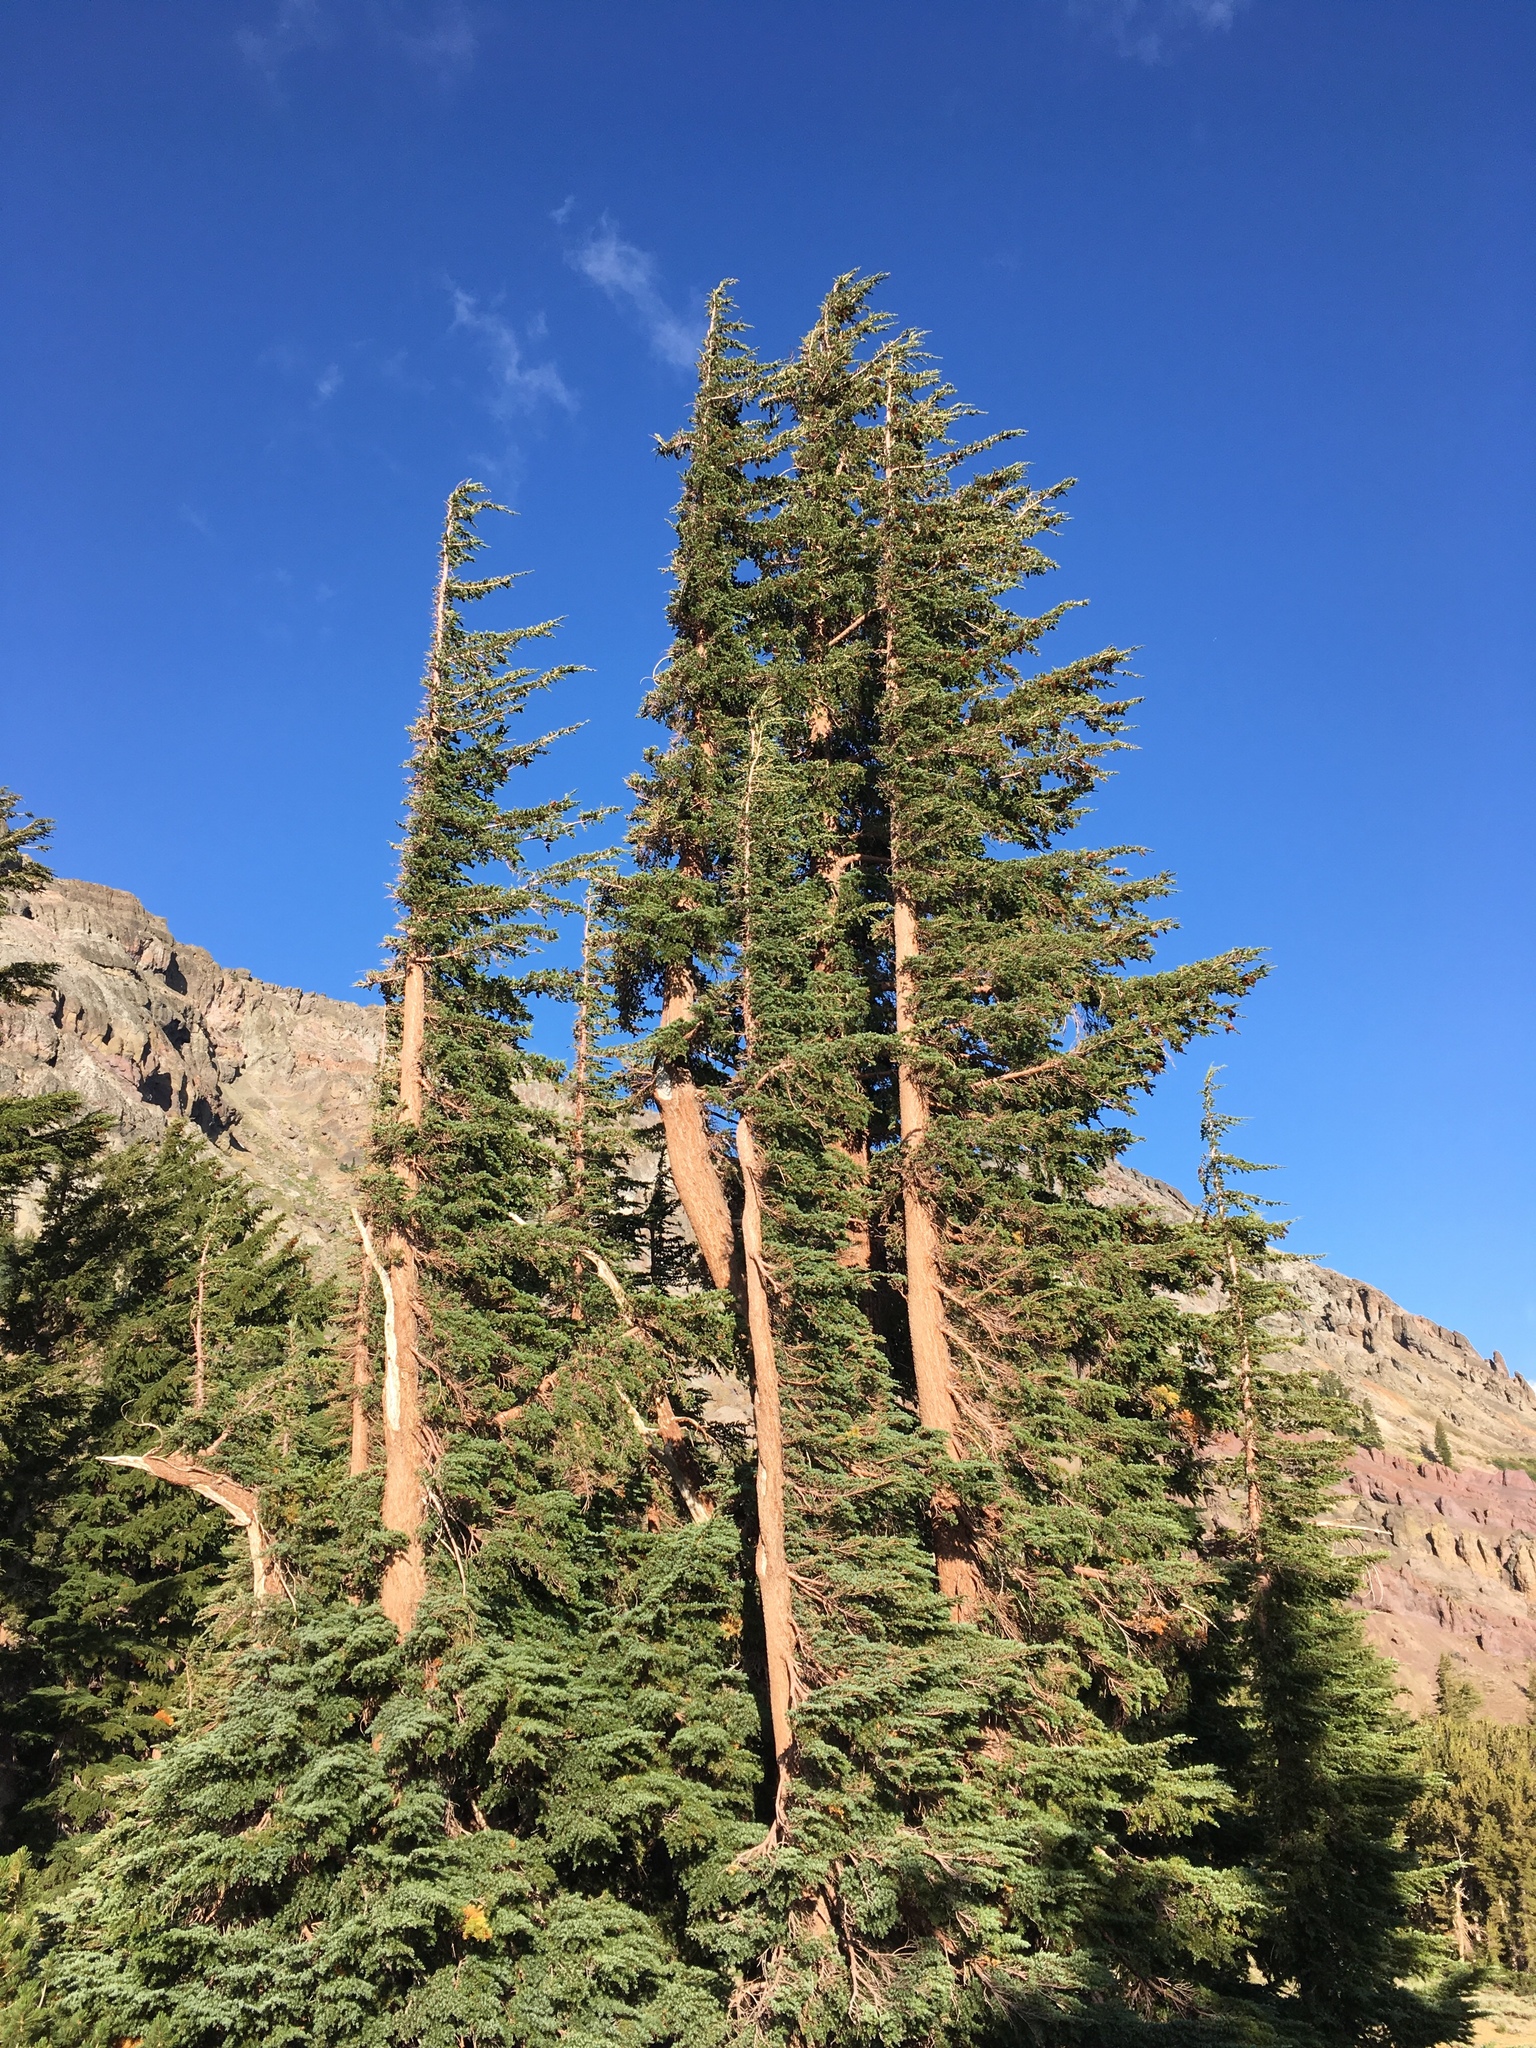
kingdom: Plantae
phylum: Tracheophyta
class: Pinopsida
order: Pinales
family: Pinaceae
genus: Tsuga
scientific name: Tsuga mertensiana
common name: Mountain hemlock
